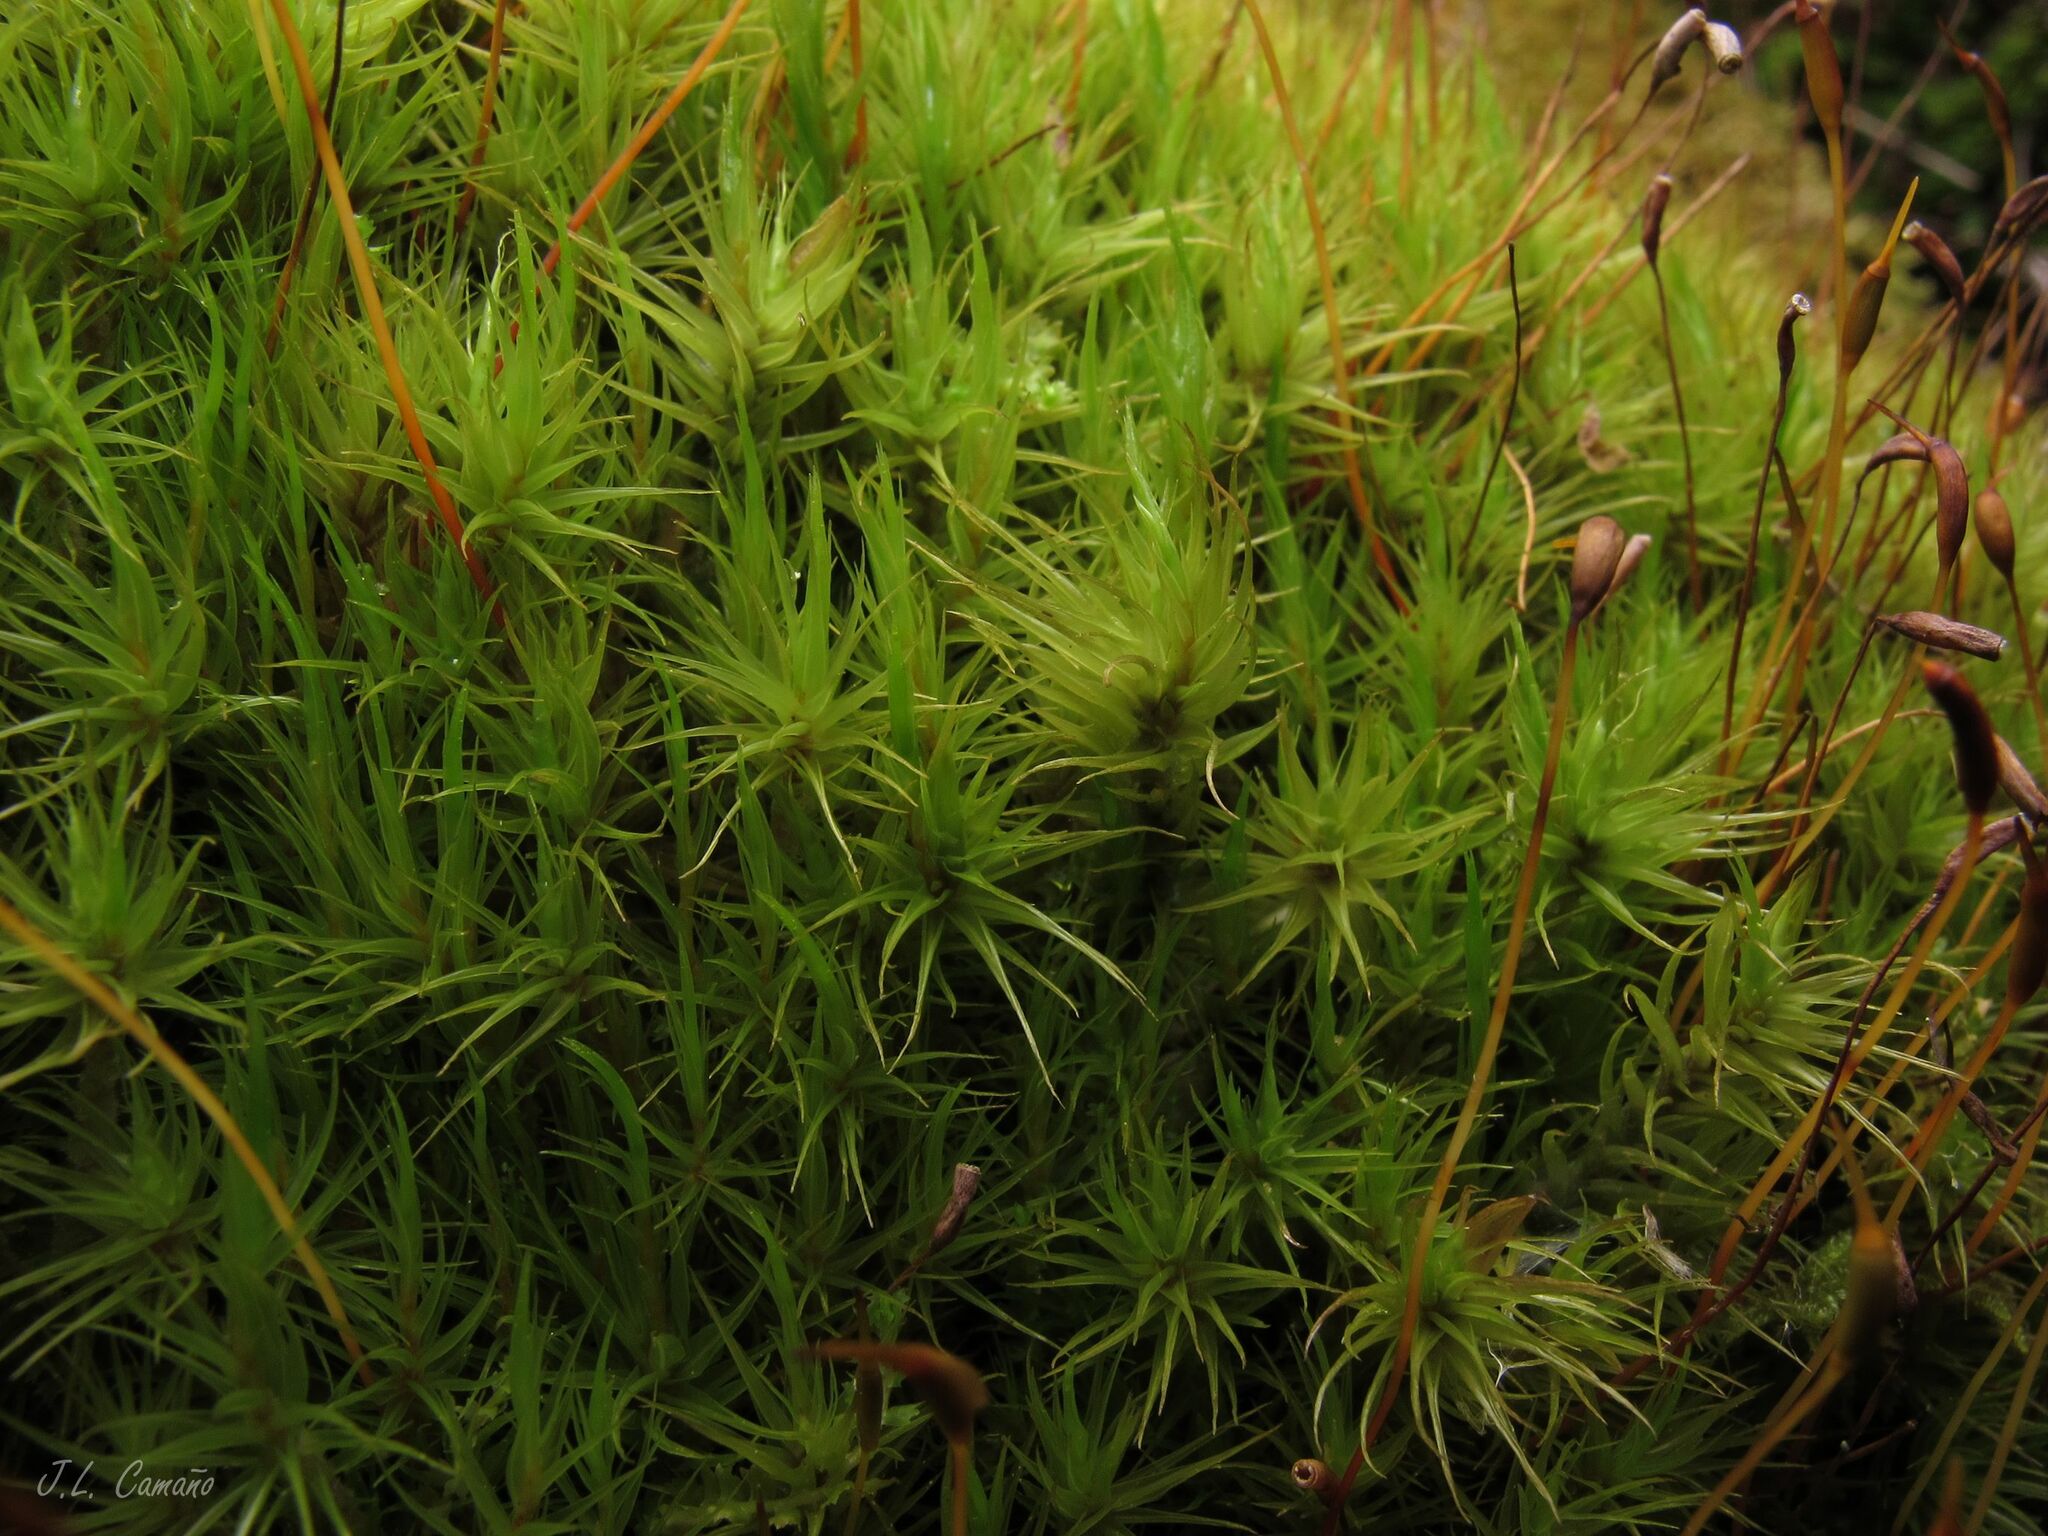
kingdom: Plantae
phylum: Bryophyta
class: Bryopsida
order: Dicranales
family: Dicranaceae
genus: Dicranum
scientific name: Dicranum scoparium
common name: Broom fork-moss
